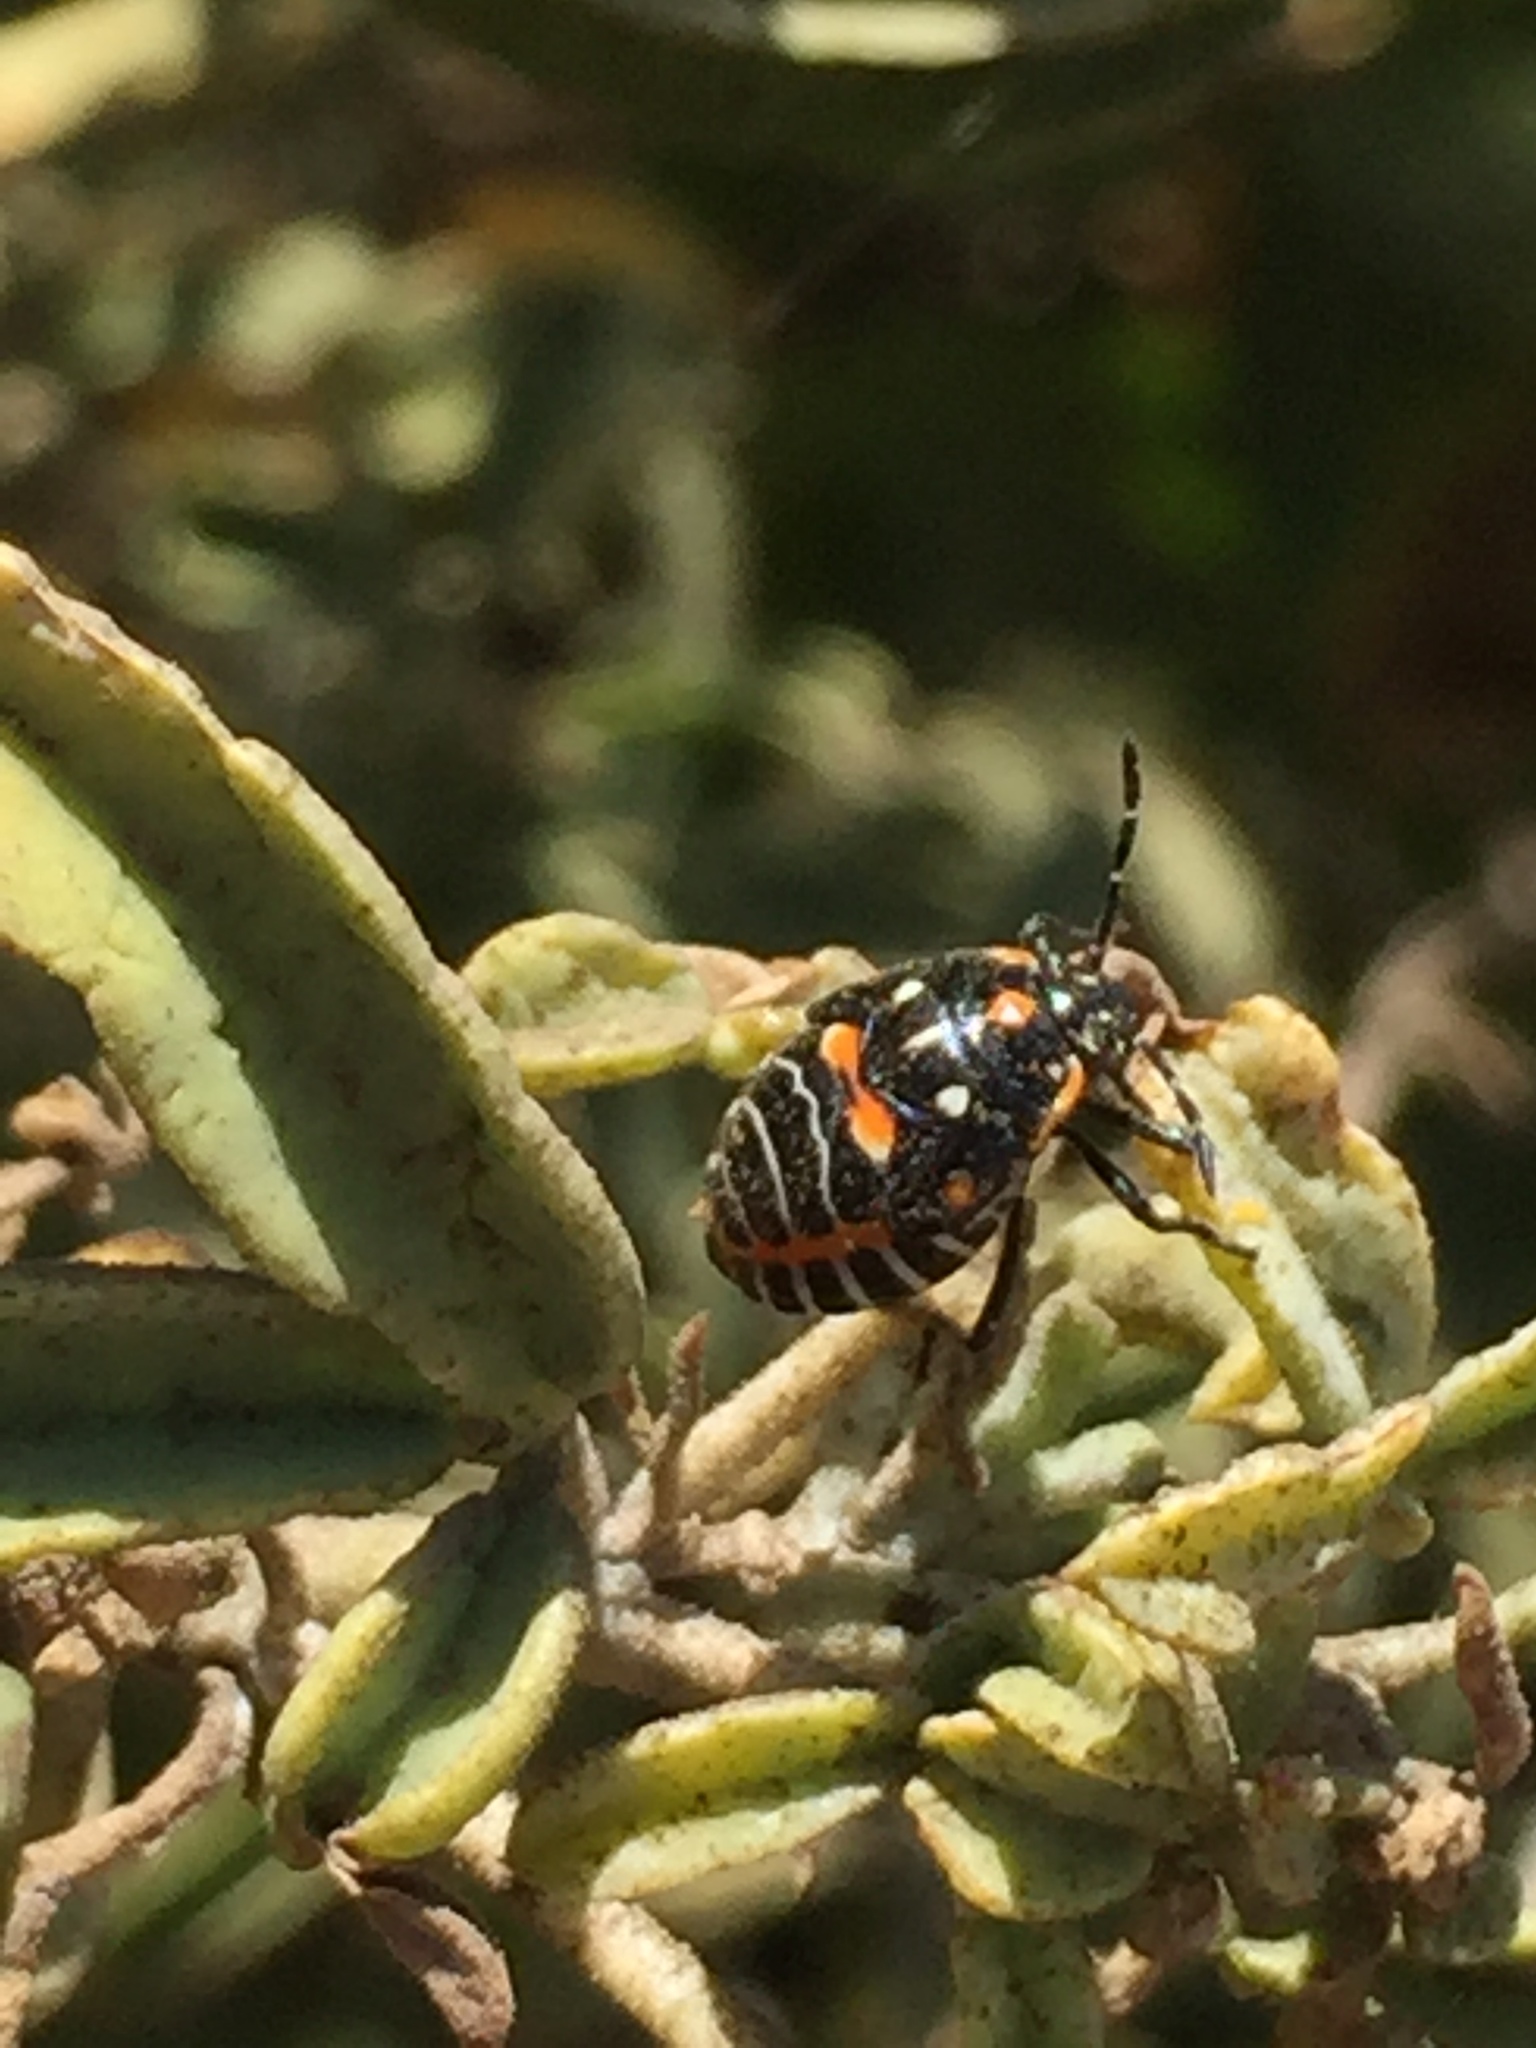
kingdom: Animalia
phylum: Arthropoda
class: Insecta
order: Hemiptera
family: Pentatomidae
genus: Murgantia
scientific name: Murgantia histrionica
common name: Harlequin bug
